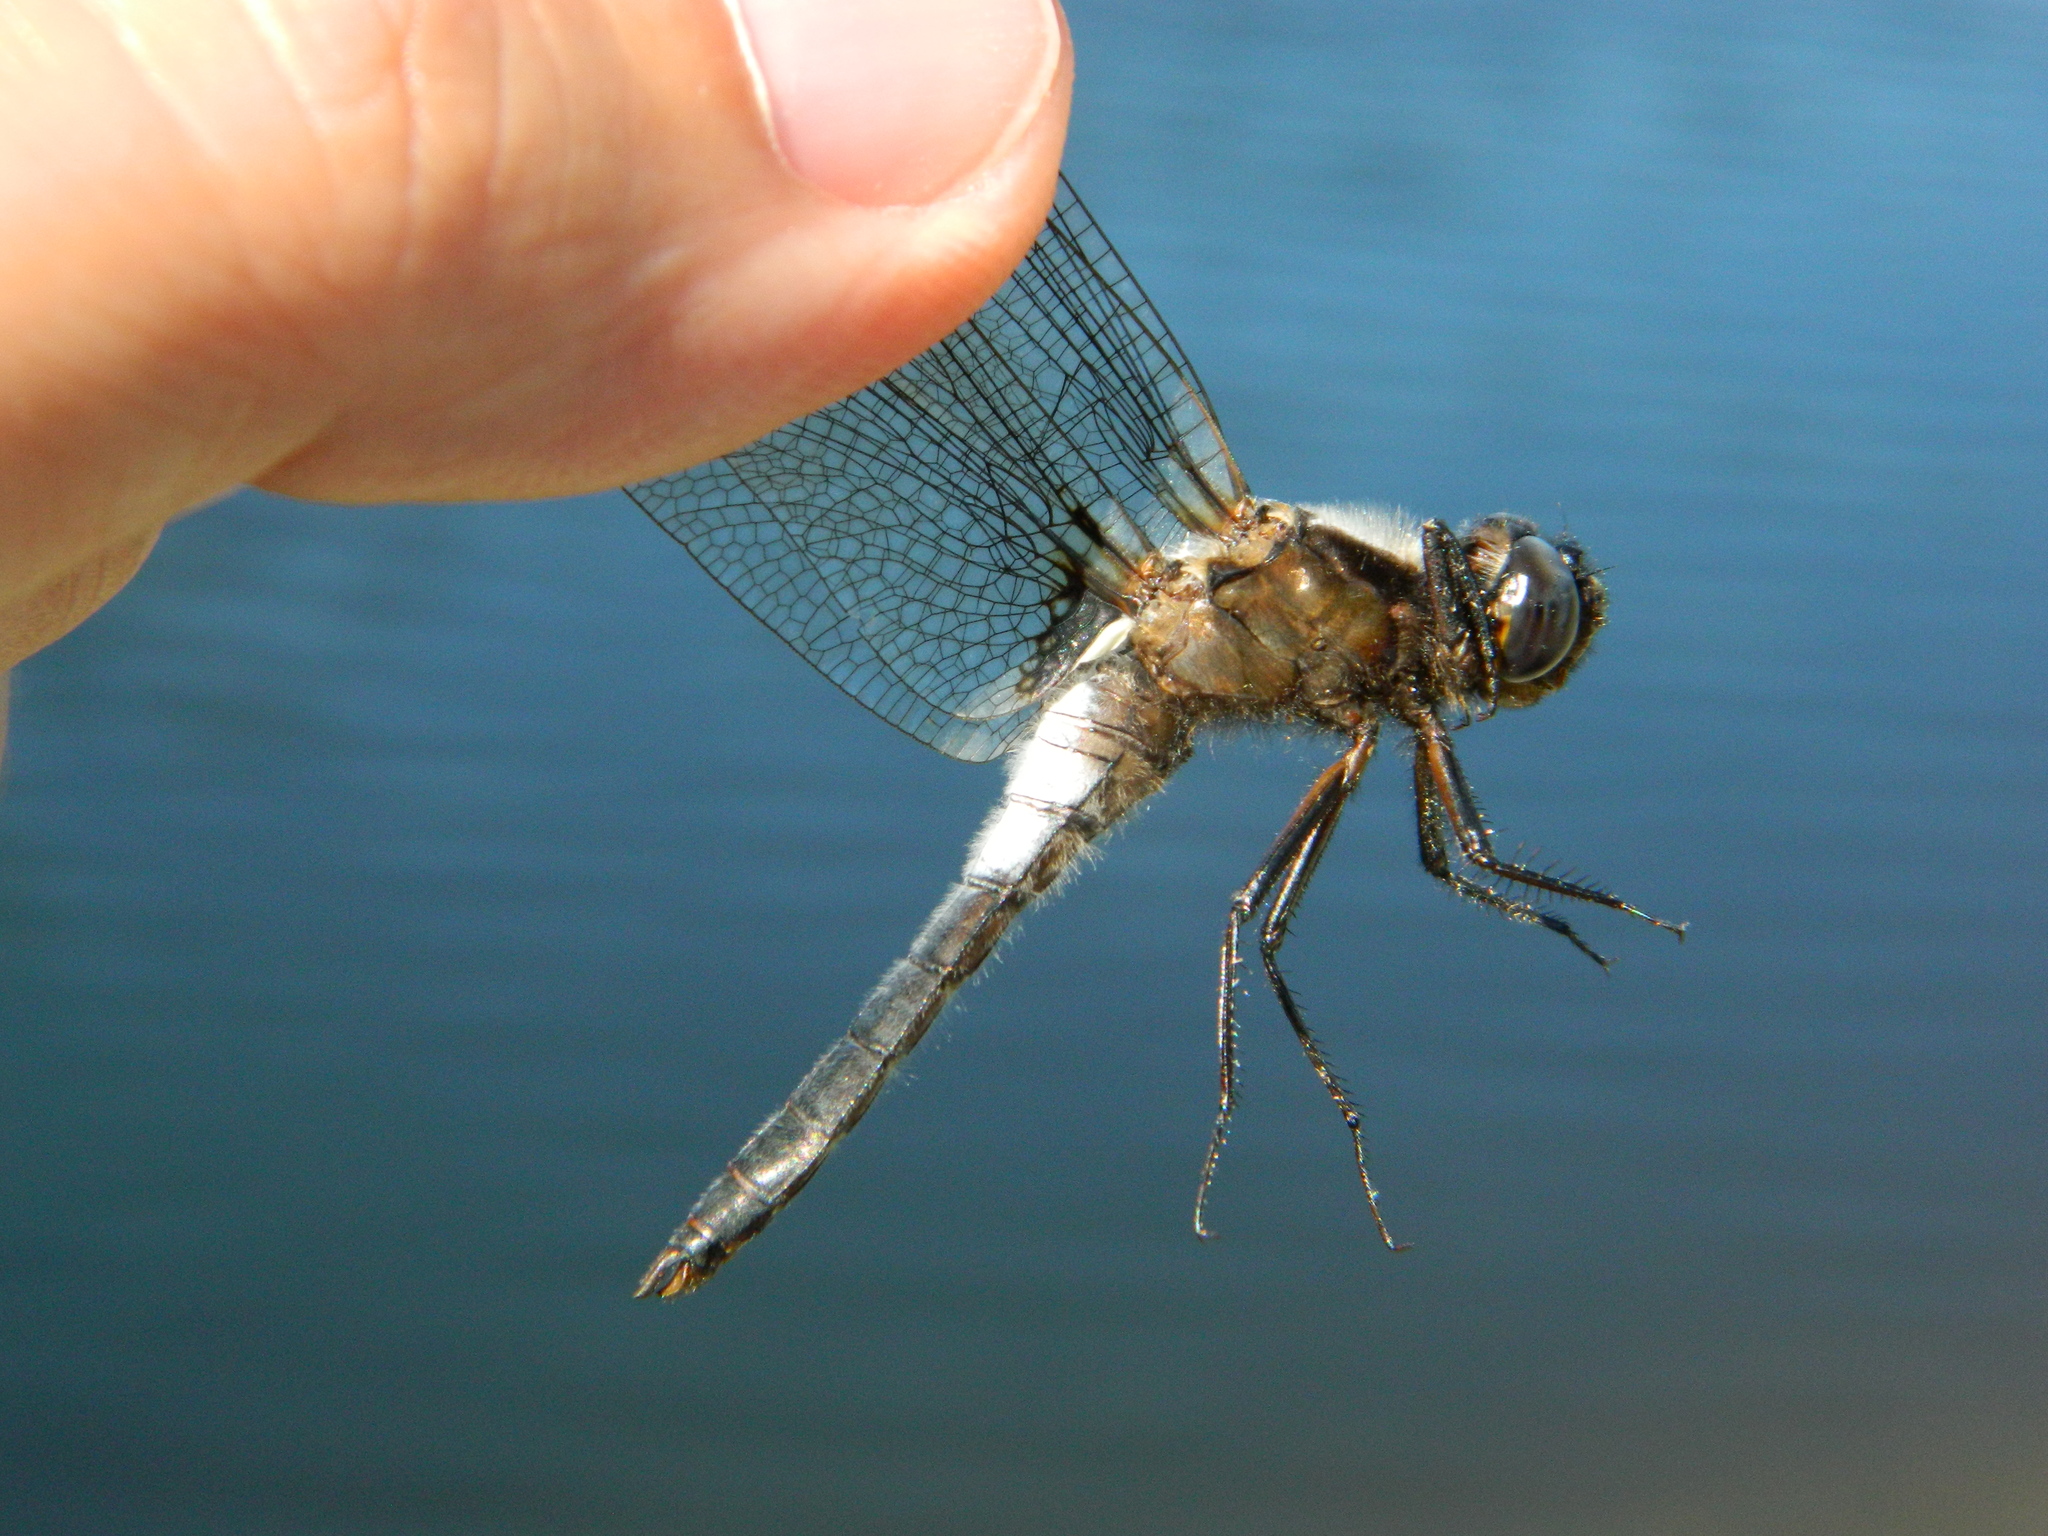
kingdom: Animalia
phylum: Arthropoda
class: Insecta
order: Odonata
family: Libellulidae
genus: Ladona
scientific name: Ladona julia
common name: Chalk-fronted corporal
